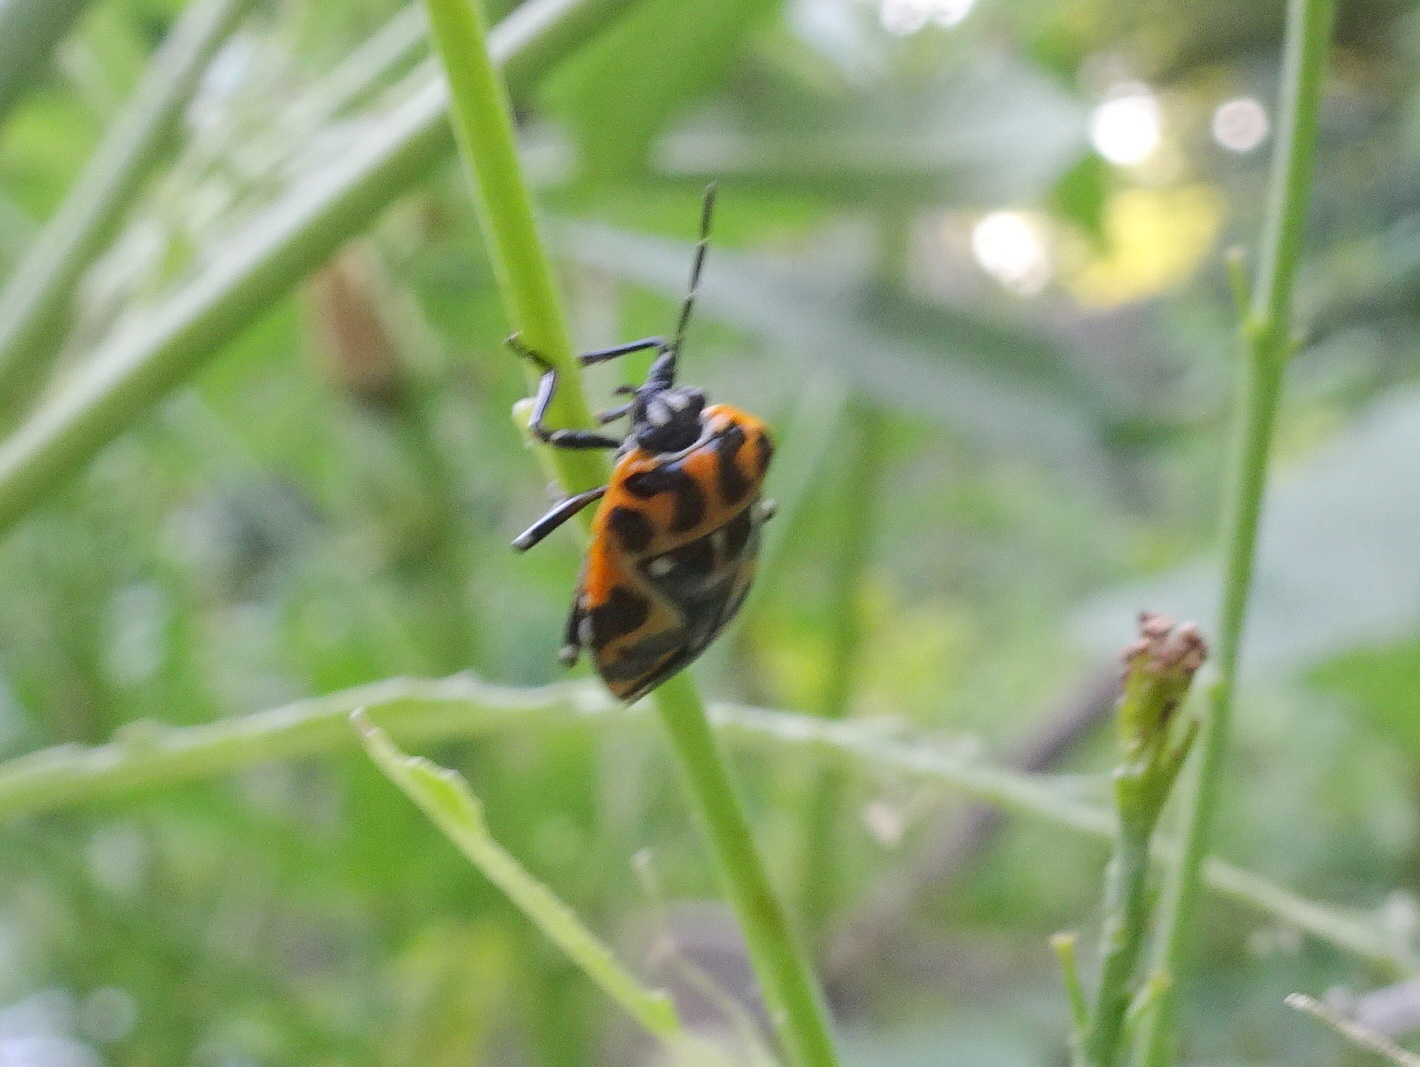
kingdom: Animalia
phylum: Arthropoda
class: Insecta
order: Hemiptera
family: Pentatomidae
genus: Murgantia
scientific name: Murgantia histrionica
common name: Harlequin bug
